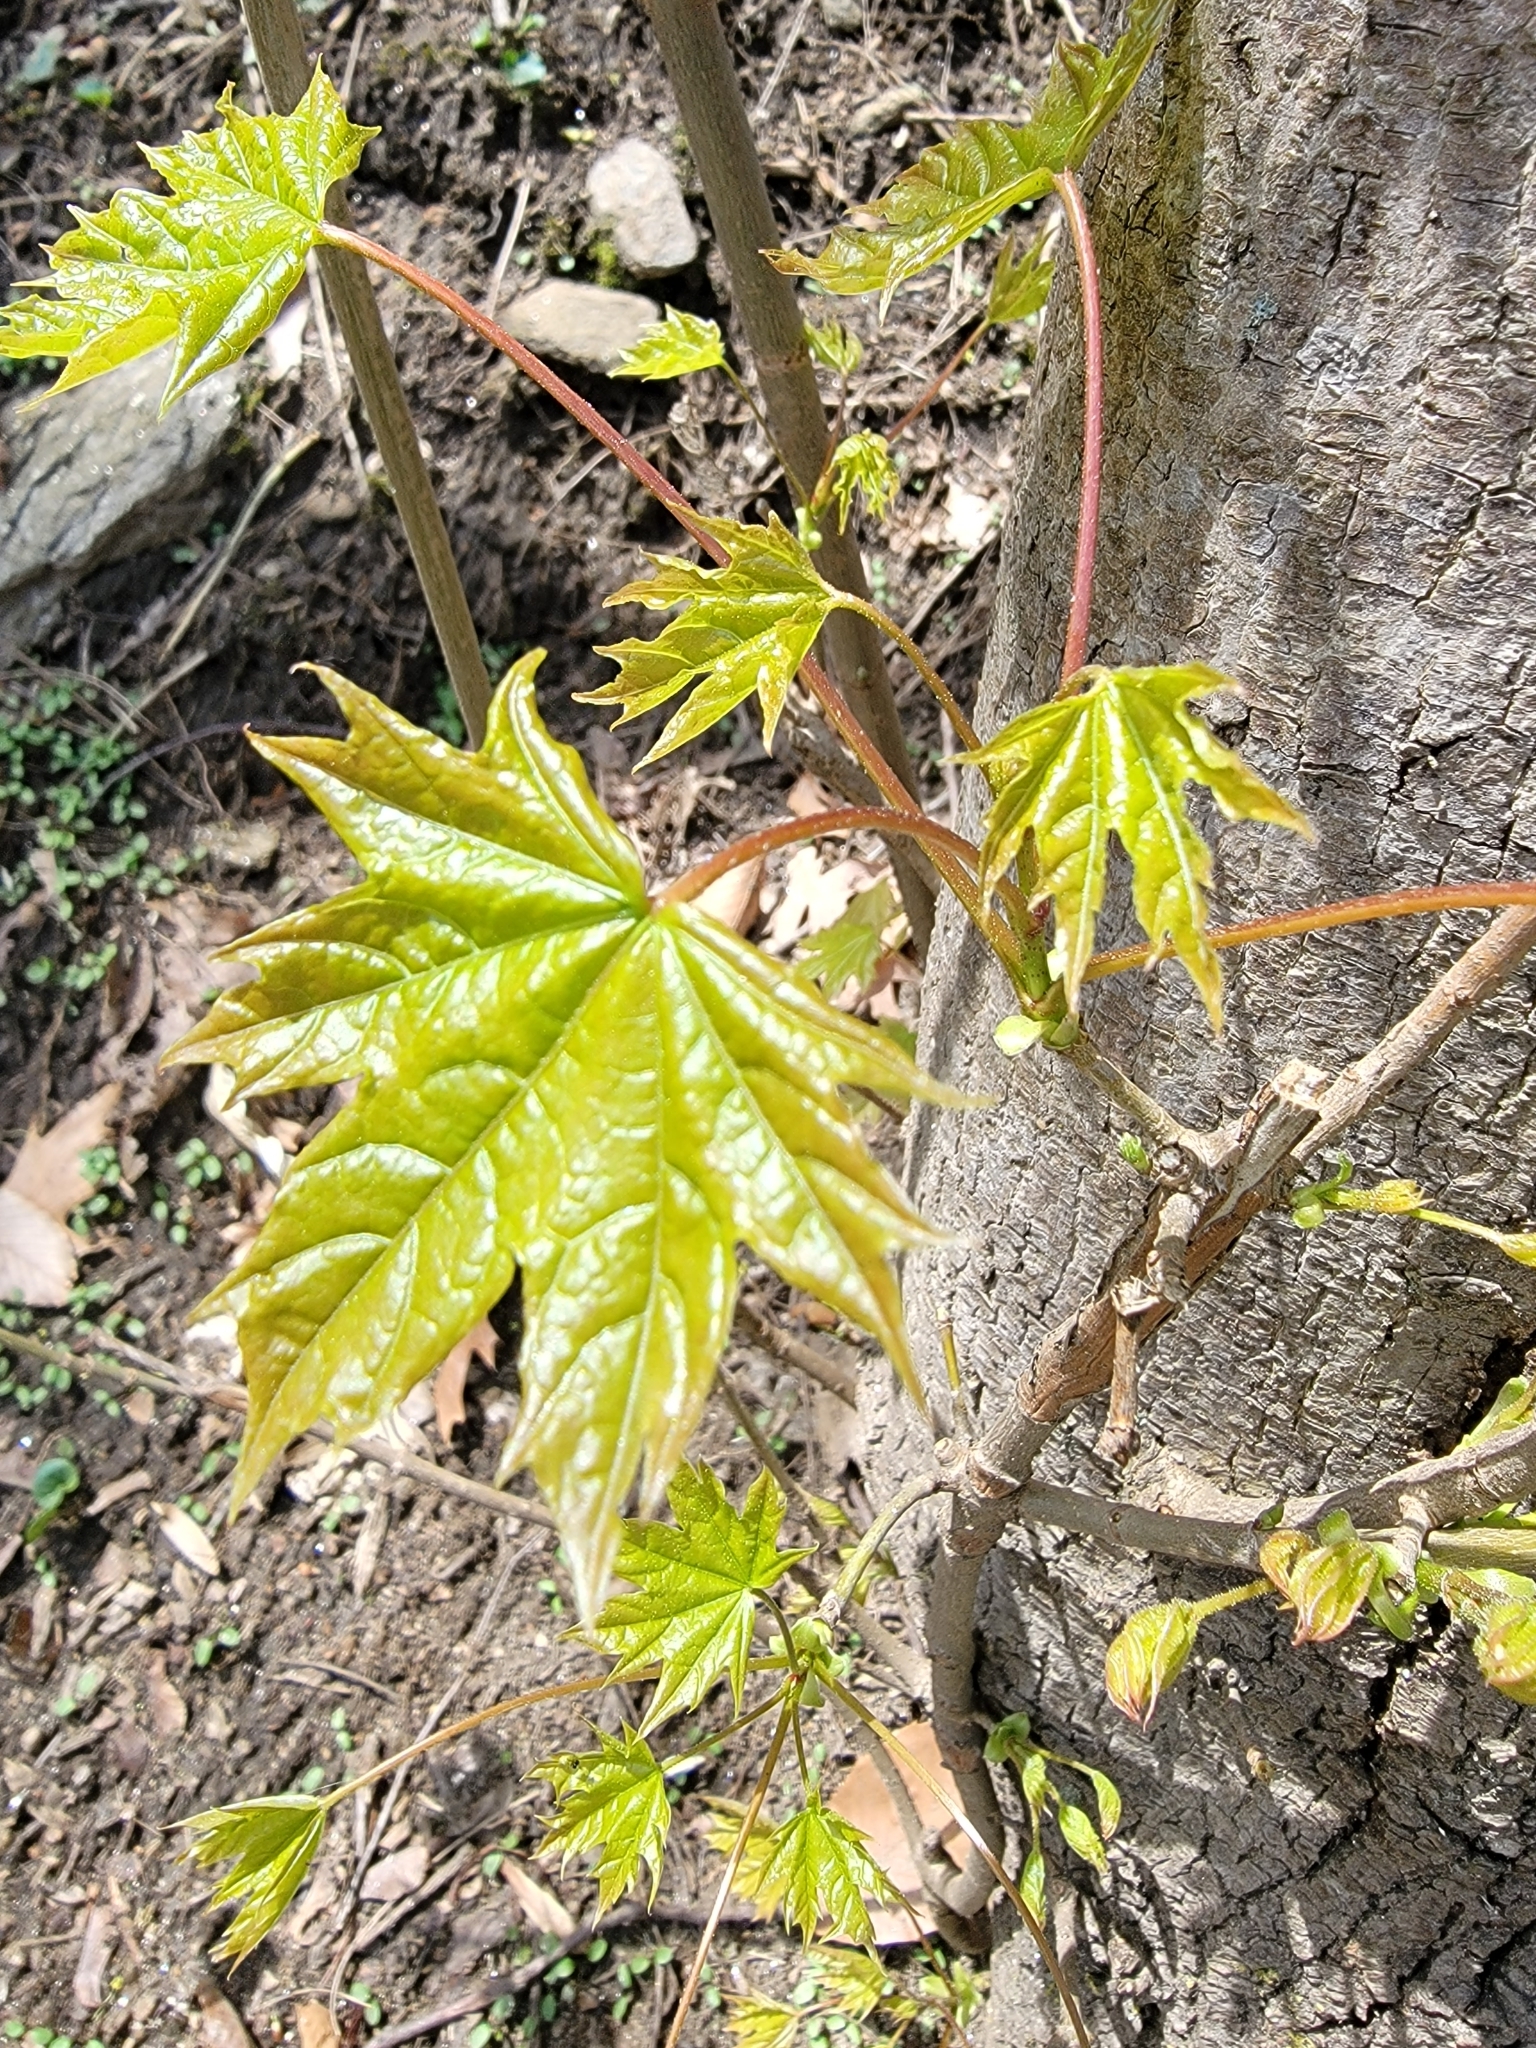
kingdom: Plantae
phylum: Tracheophyta
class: Magnoliopsida
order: Sapindales
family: Sapindaceae
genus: Acer
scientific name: Acer platanoides
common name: Norway maple
